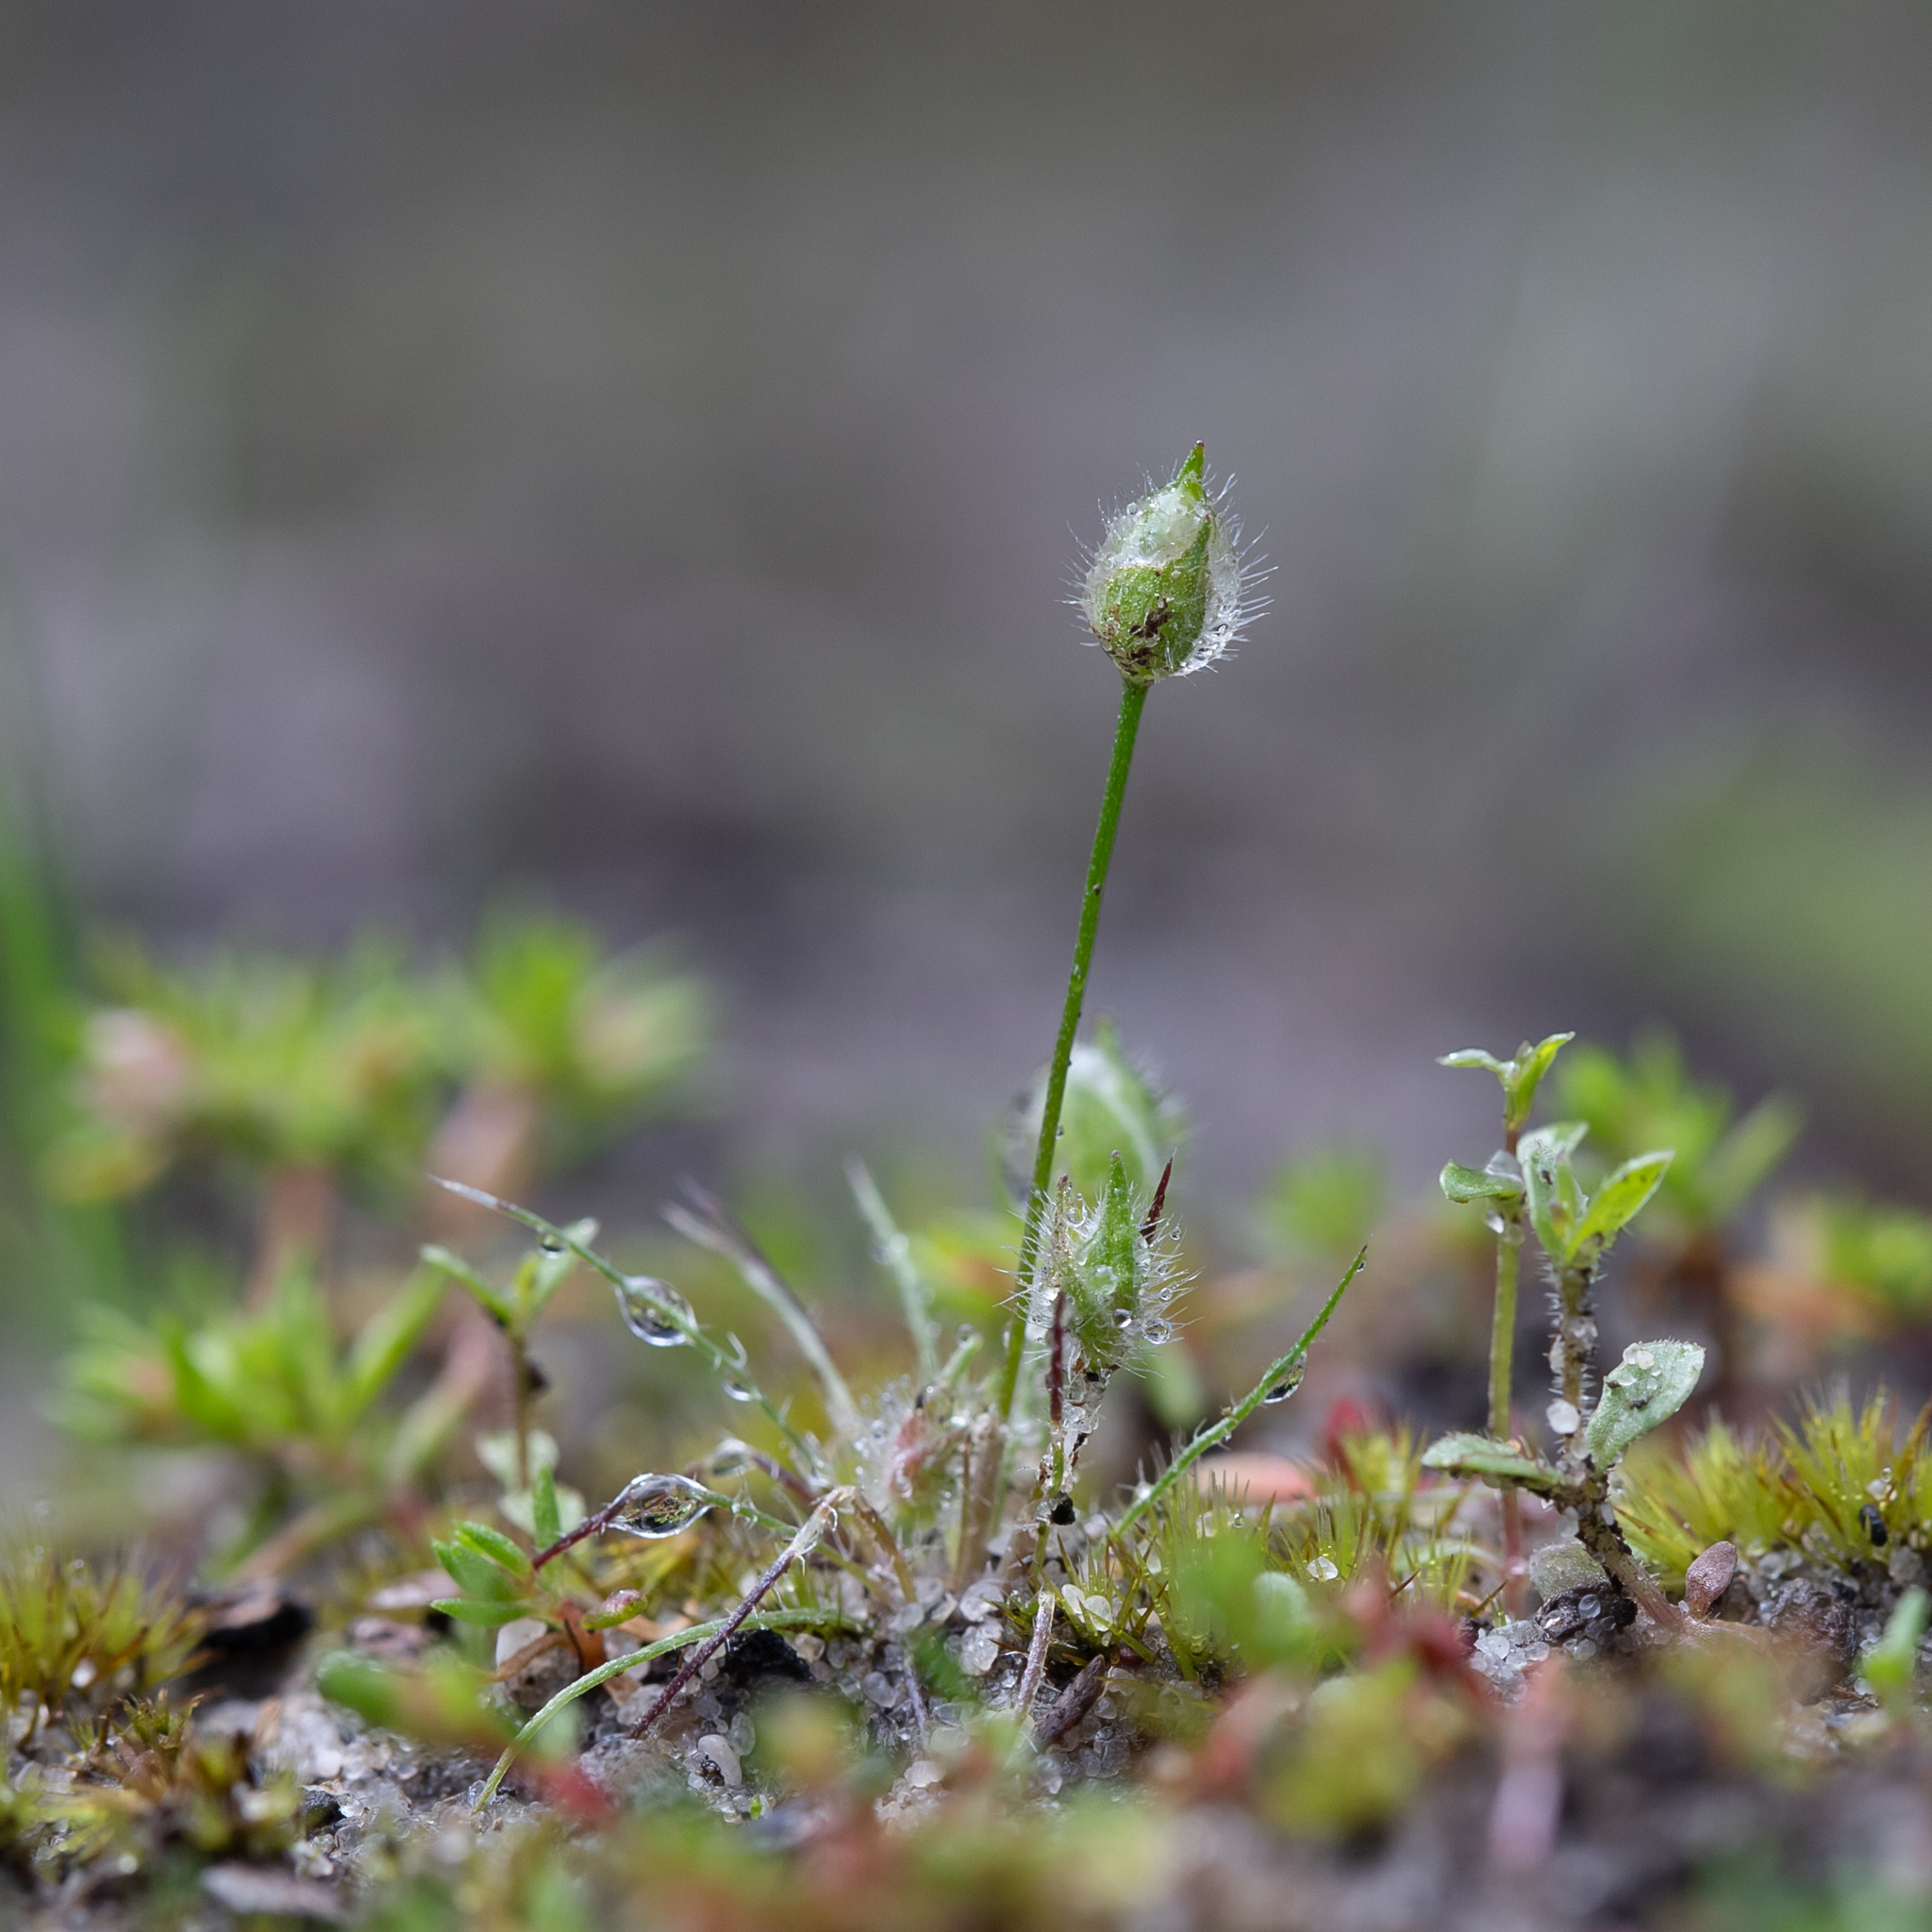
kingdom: Plantae
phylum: Tracheophyta
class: Liliopsida
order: Poales
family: Restionaceae
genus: Centrolepis
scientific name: Centrolepis strigosa
